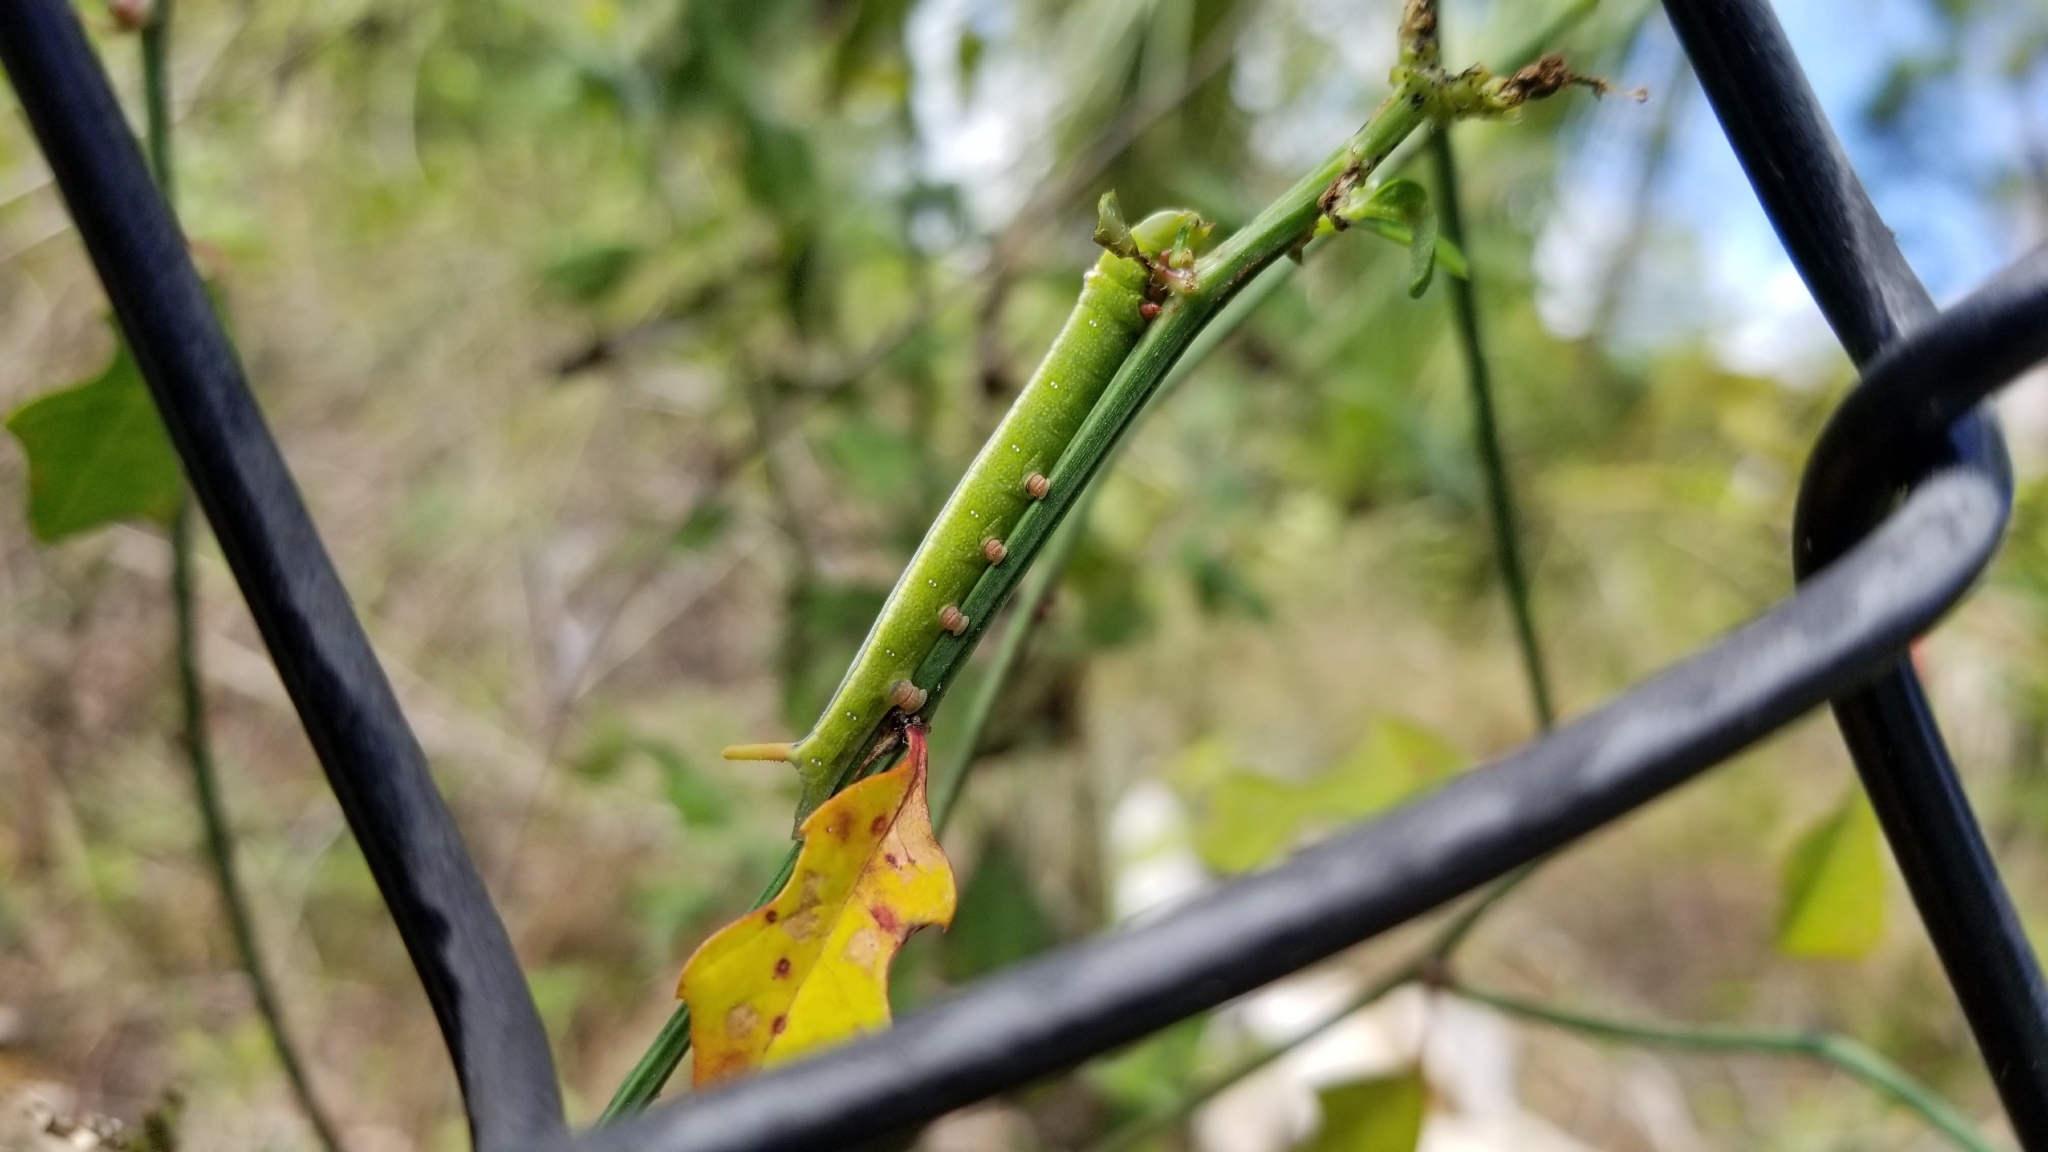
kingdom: Animalia
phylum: Arthropoda
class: Insecta
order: Lepidoptera
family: Sphingidae
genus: Erinnyis
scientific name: Erinnyis ello
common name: Ello sphinx
